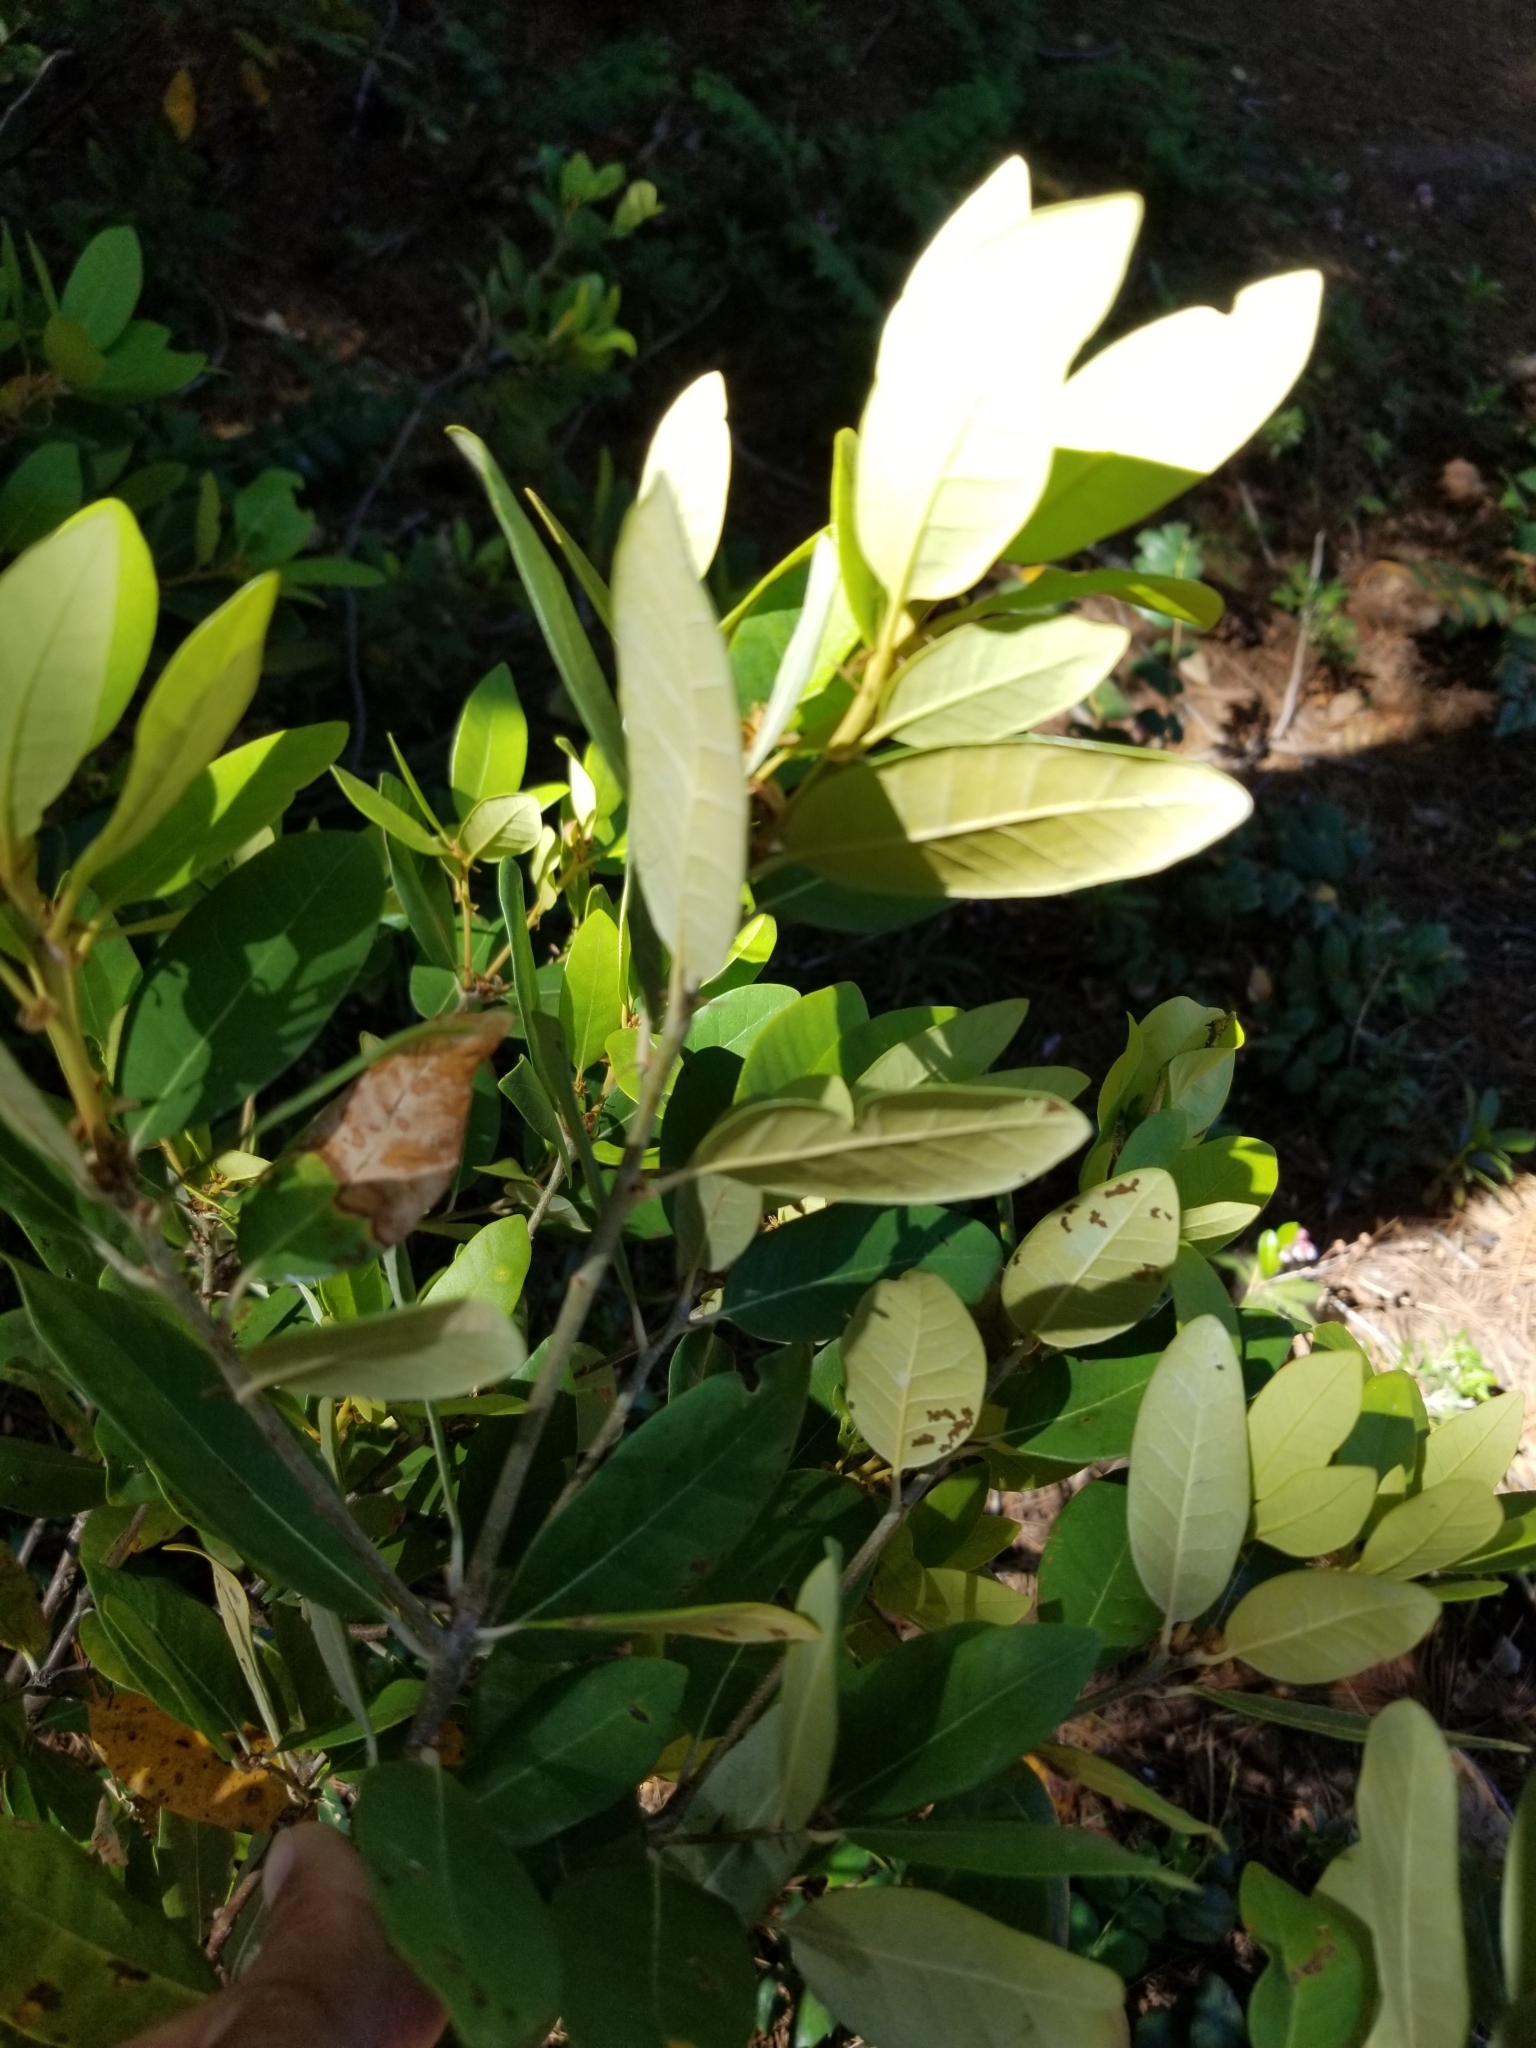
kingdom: Plantae
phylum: Tracheophyta
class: Magnoliopsida
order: Fagales
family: Fagaceae
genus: Chrysolepis
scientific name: Chrysolepis sempervirens
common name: Bush chinquapin
